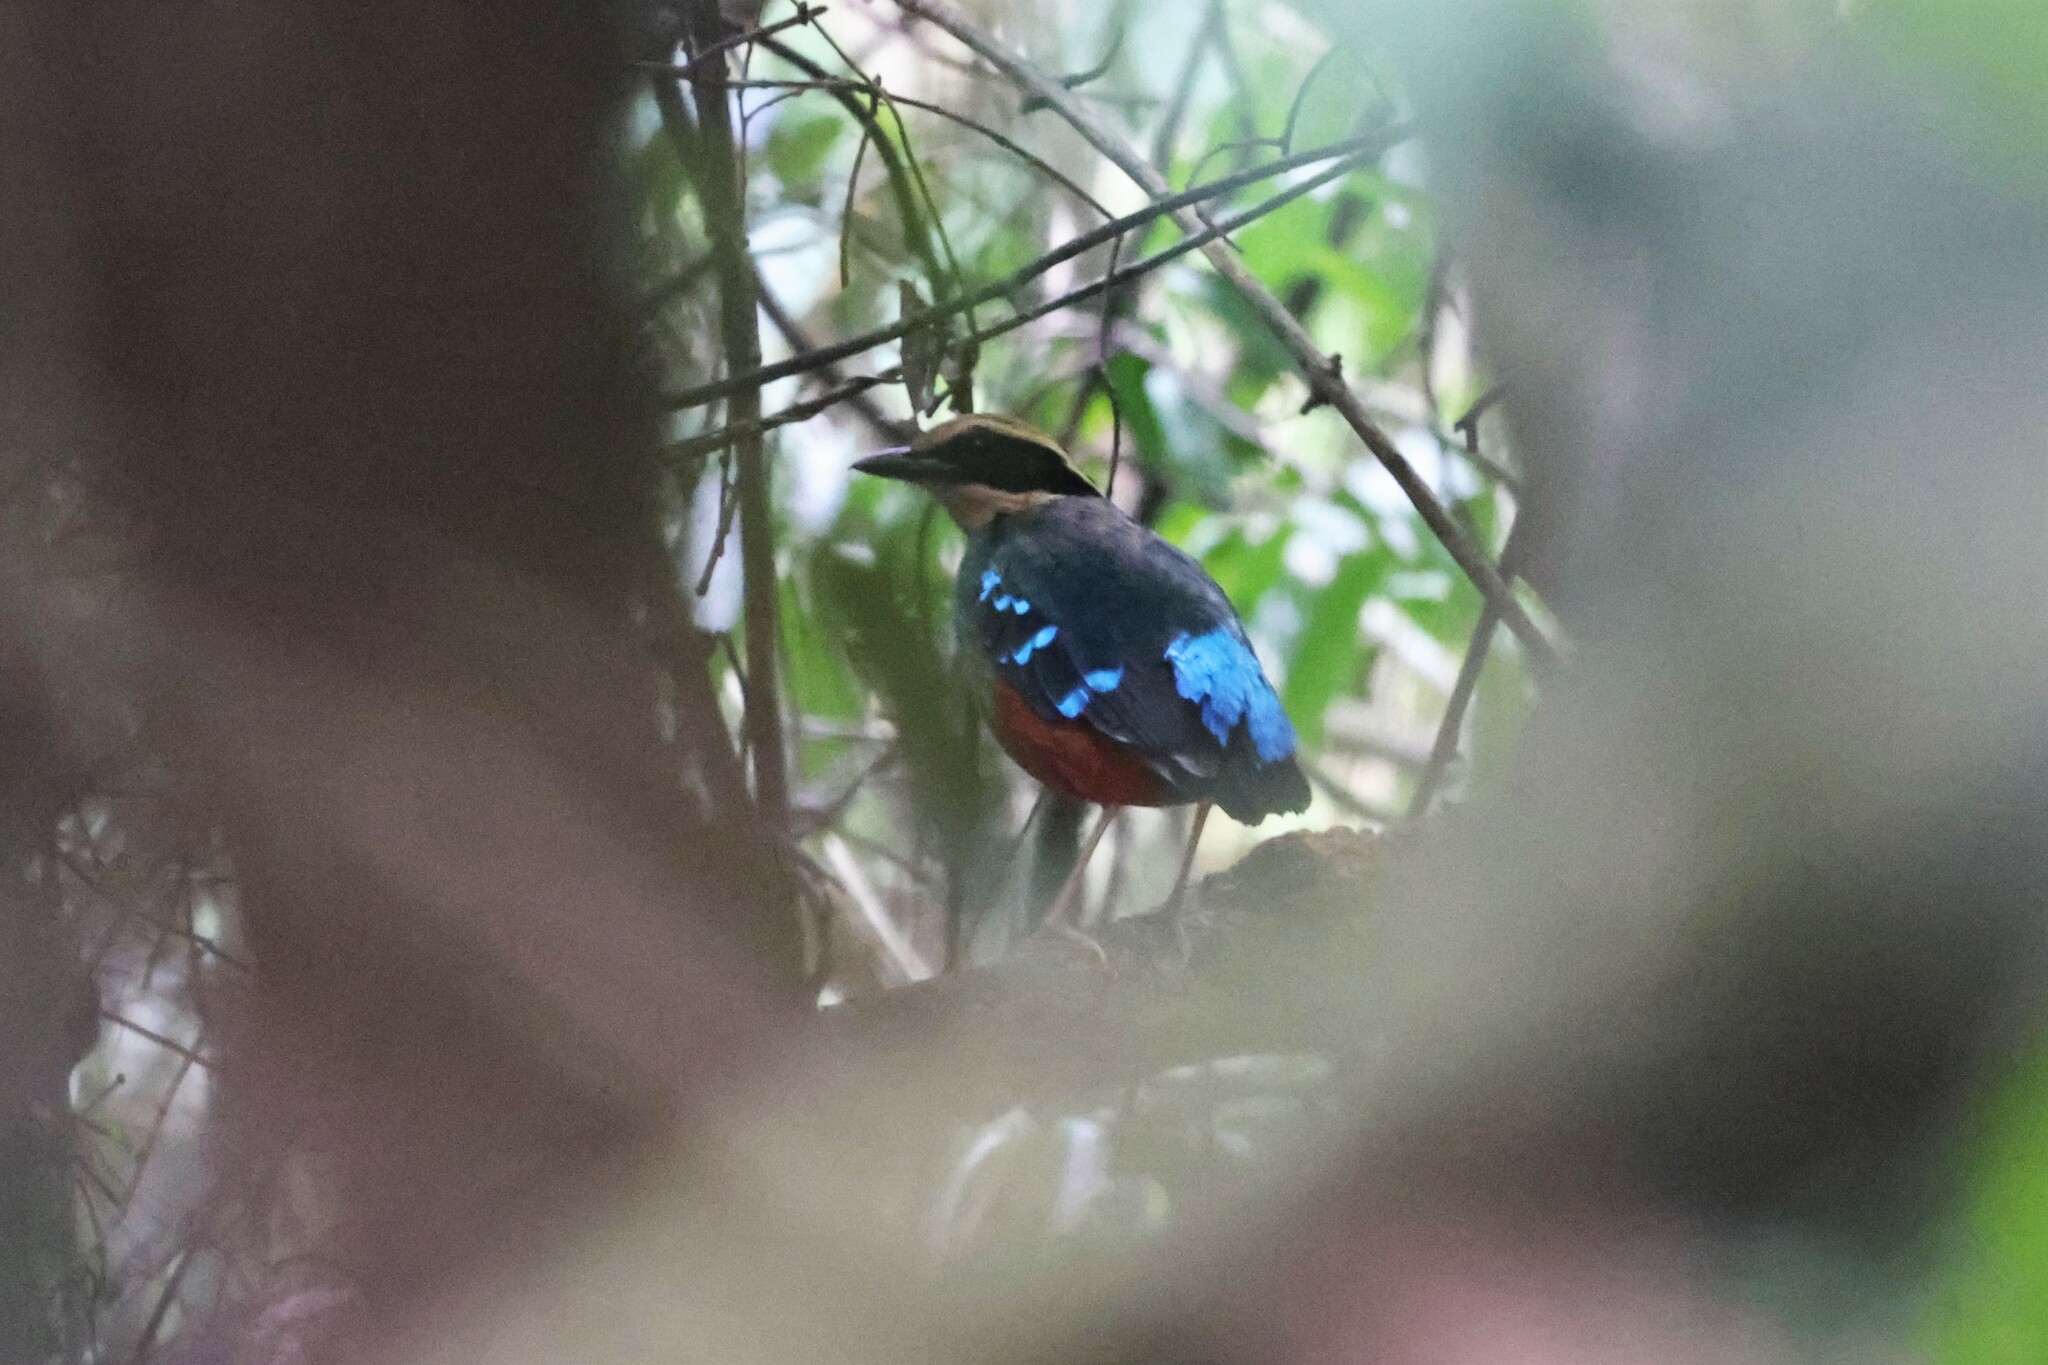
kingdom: Animalia
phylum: Chordata
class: Aves
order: Passeriformes
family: Pittidae
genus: Pitta
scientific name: Pitta reichenowi
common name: Green-breasted pitta
